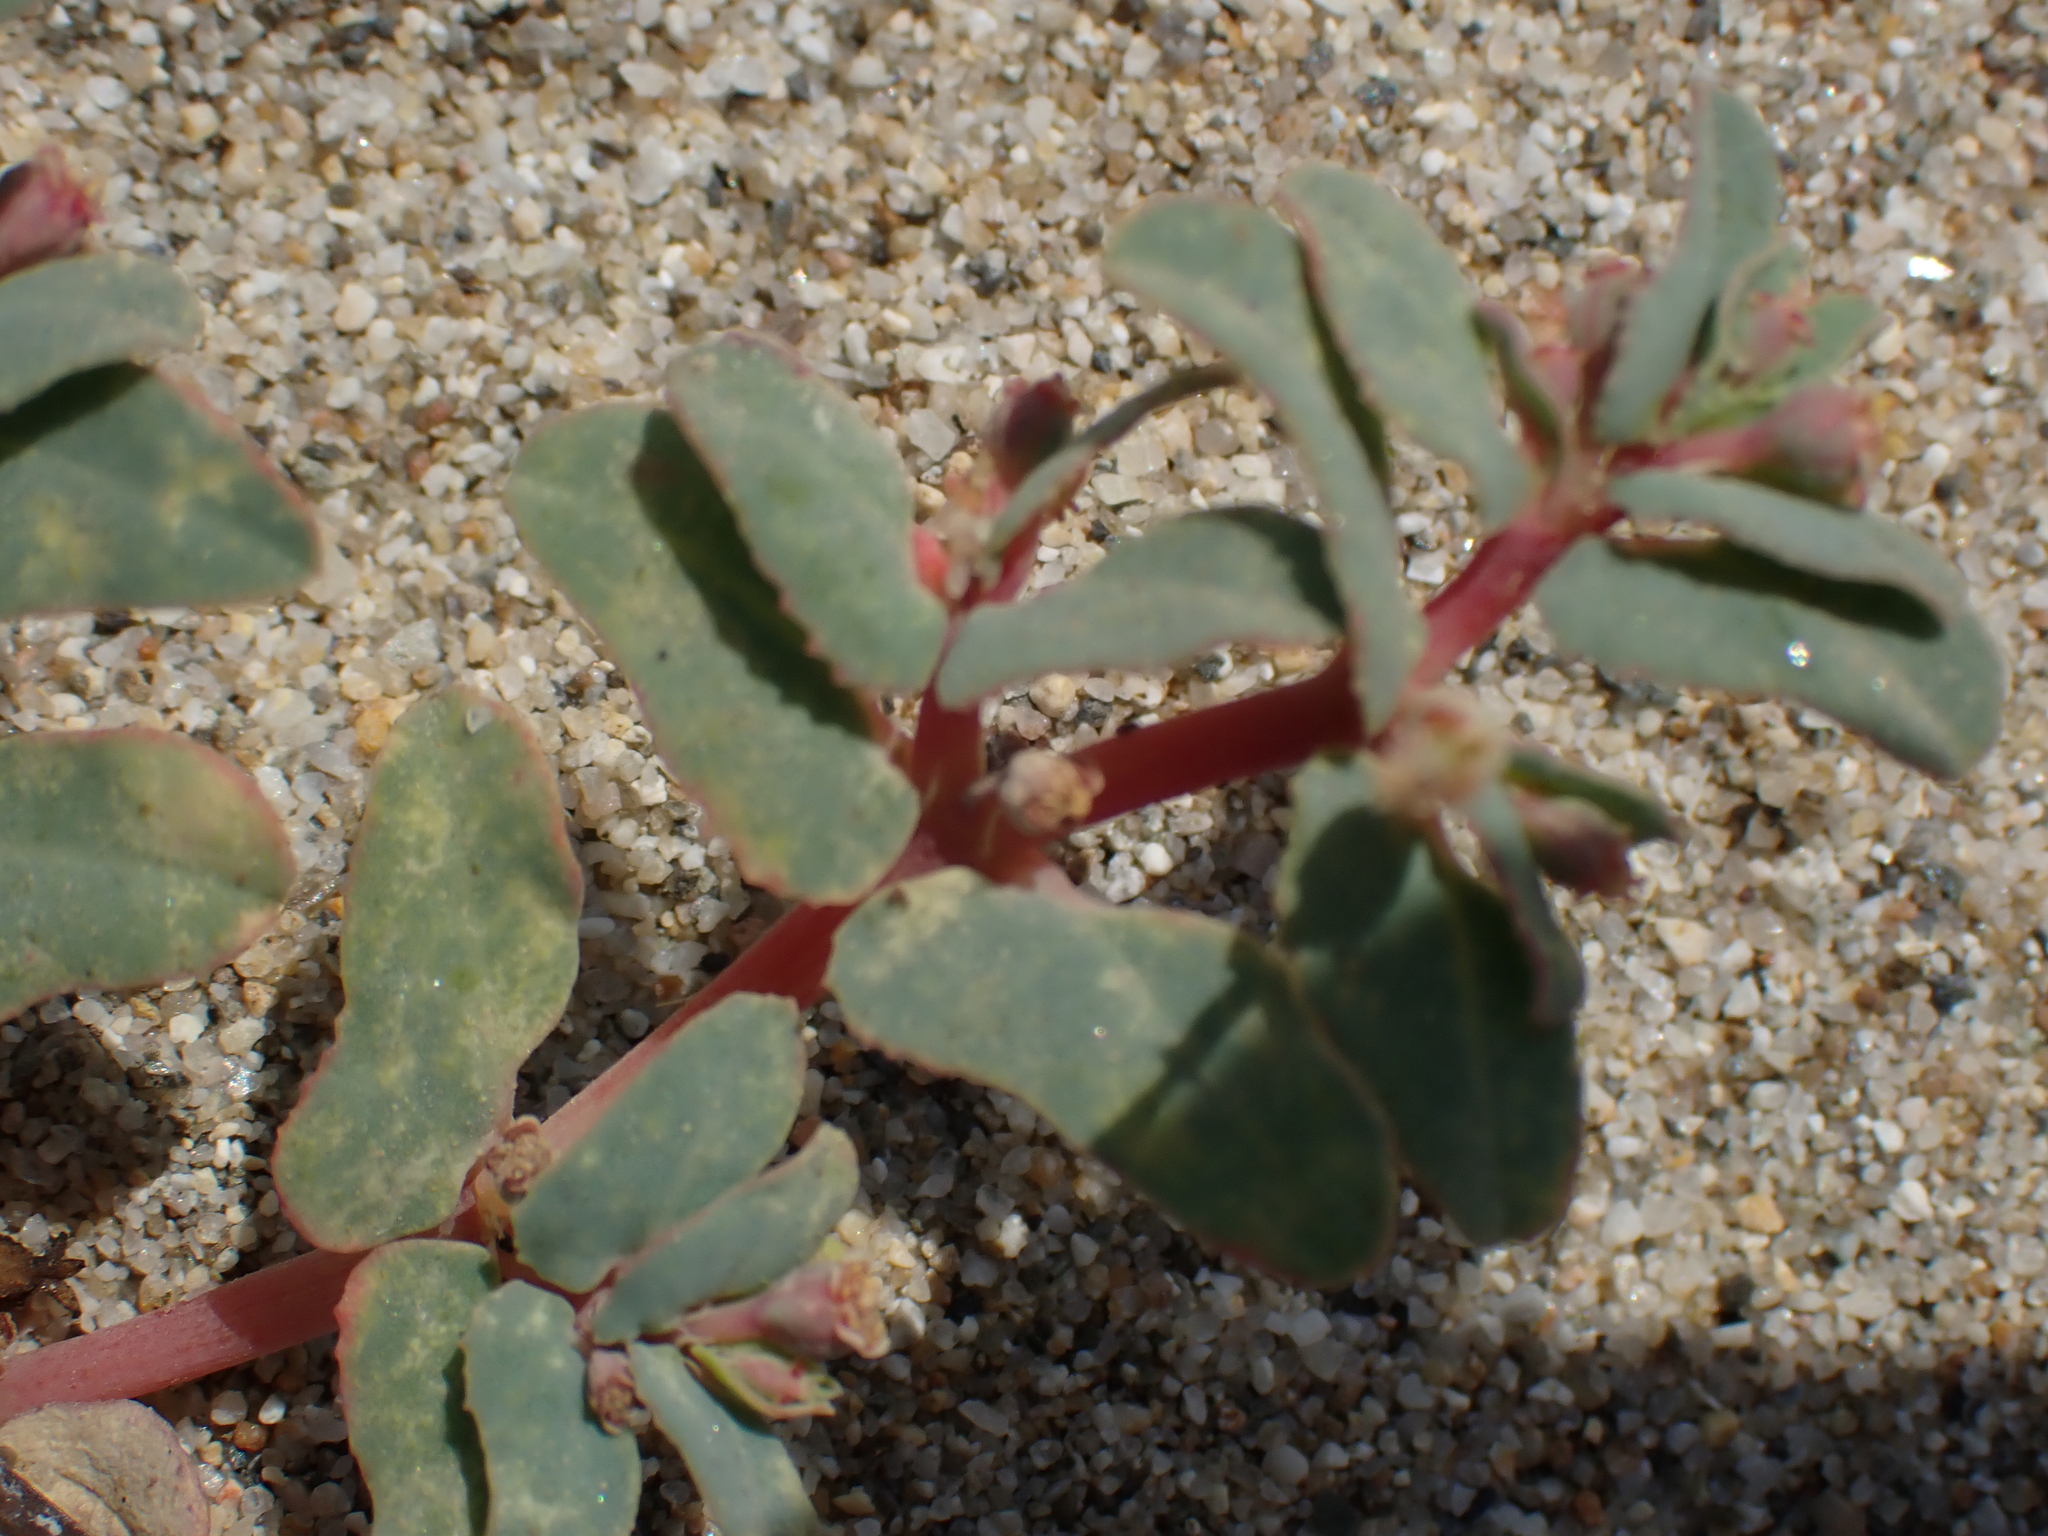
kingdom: Plantae
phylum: Tracheophyta
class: Magnoliopsida
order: Malpighiales
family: Euphorbiaceae
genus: Euphorbia
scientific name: Euphorbia peplis
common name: Purple spurge
